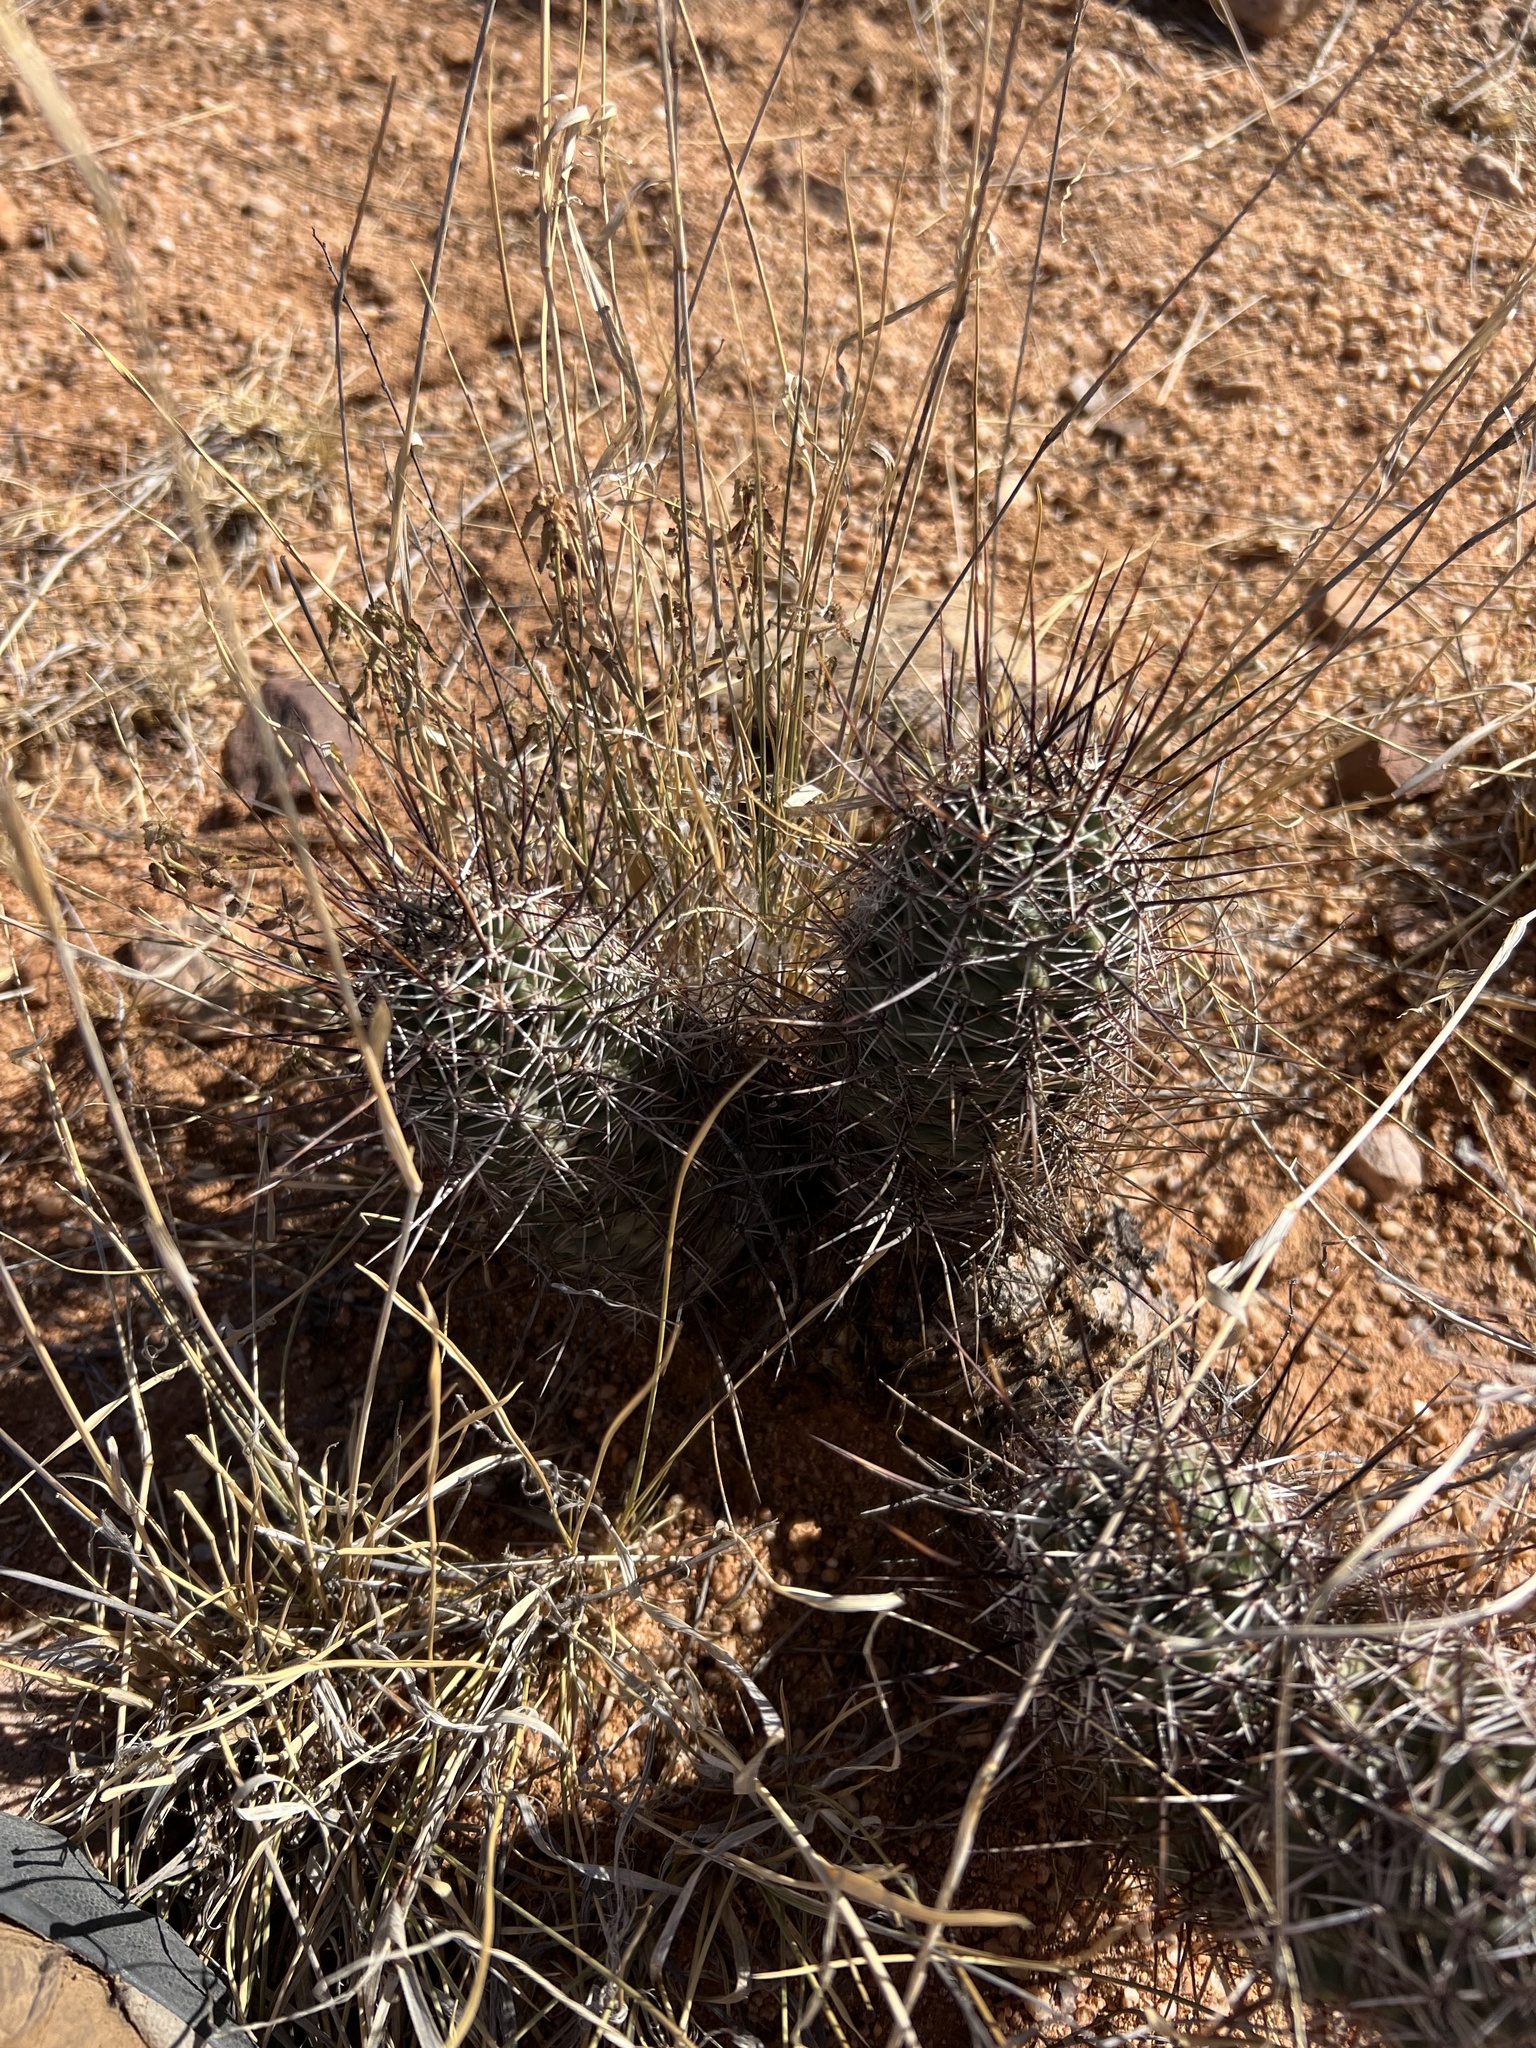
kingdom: Plantae
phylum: Tracheophyta
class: Magnoliopsida
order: Caryophyllales
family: Cactaceae
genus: Echinocereus
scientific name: Echinocereus fasciculatus
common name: Bundle hedgehog
